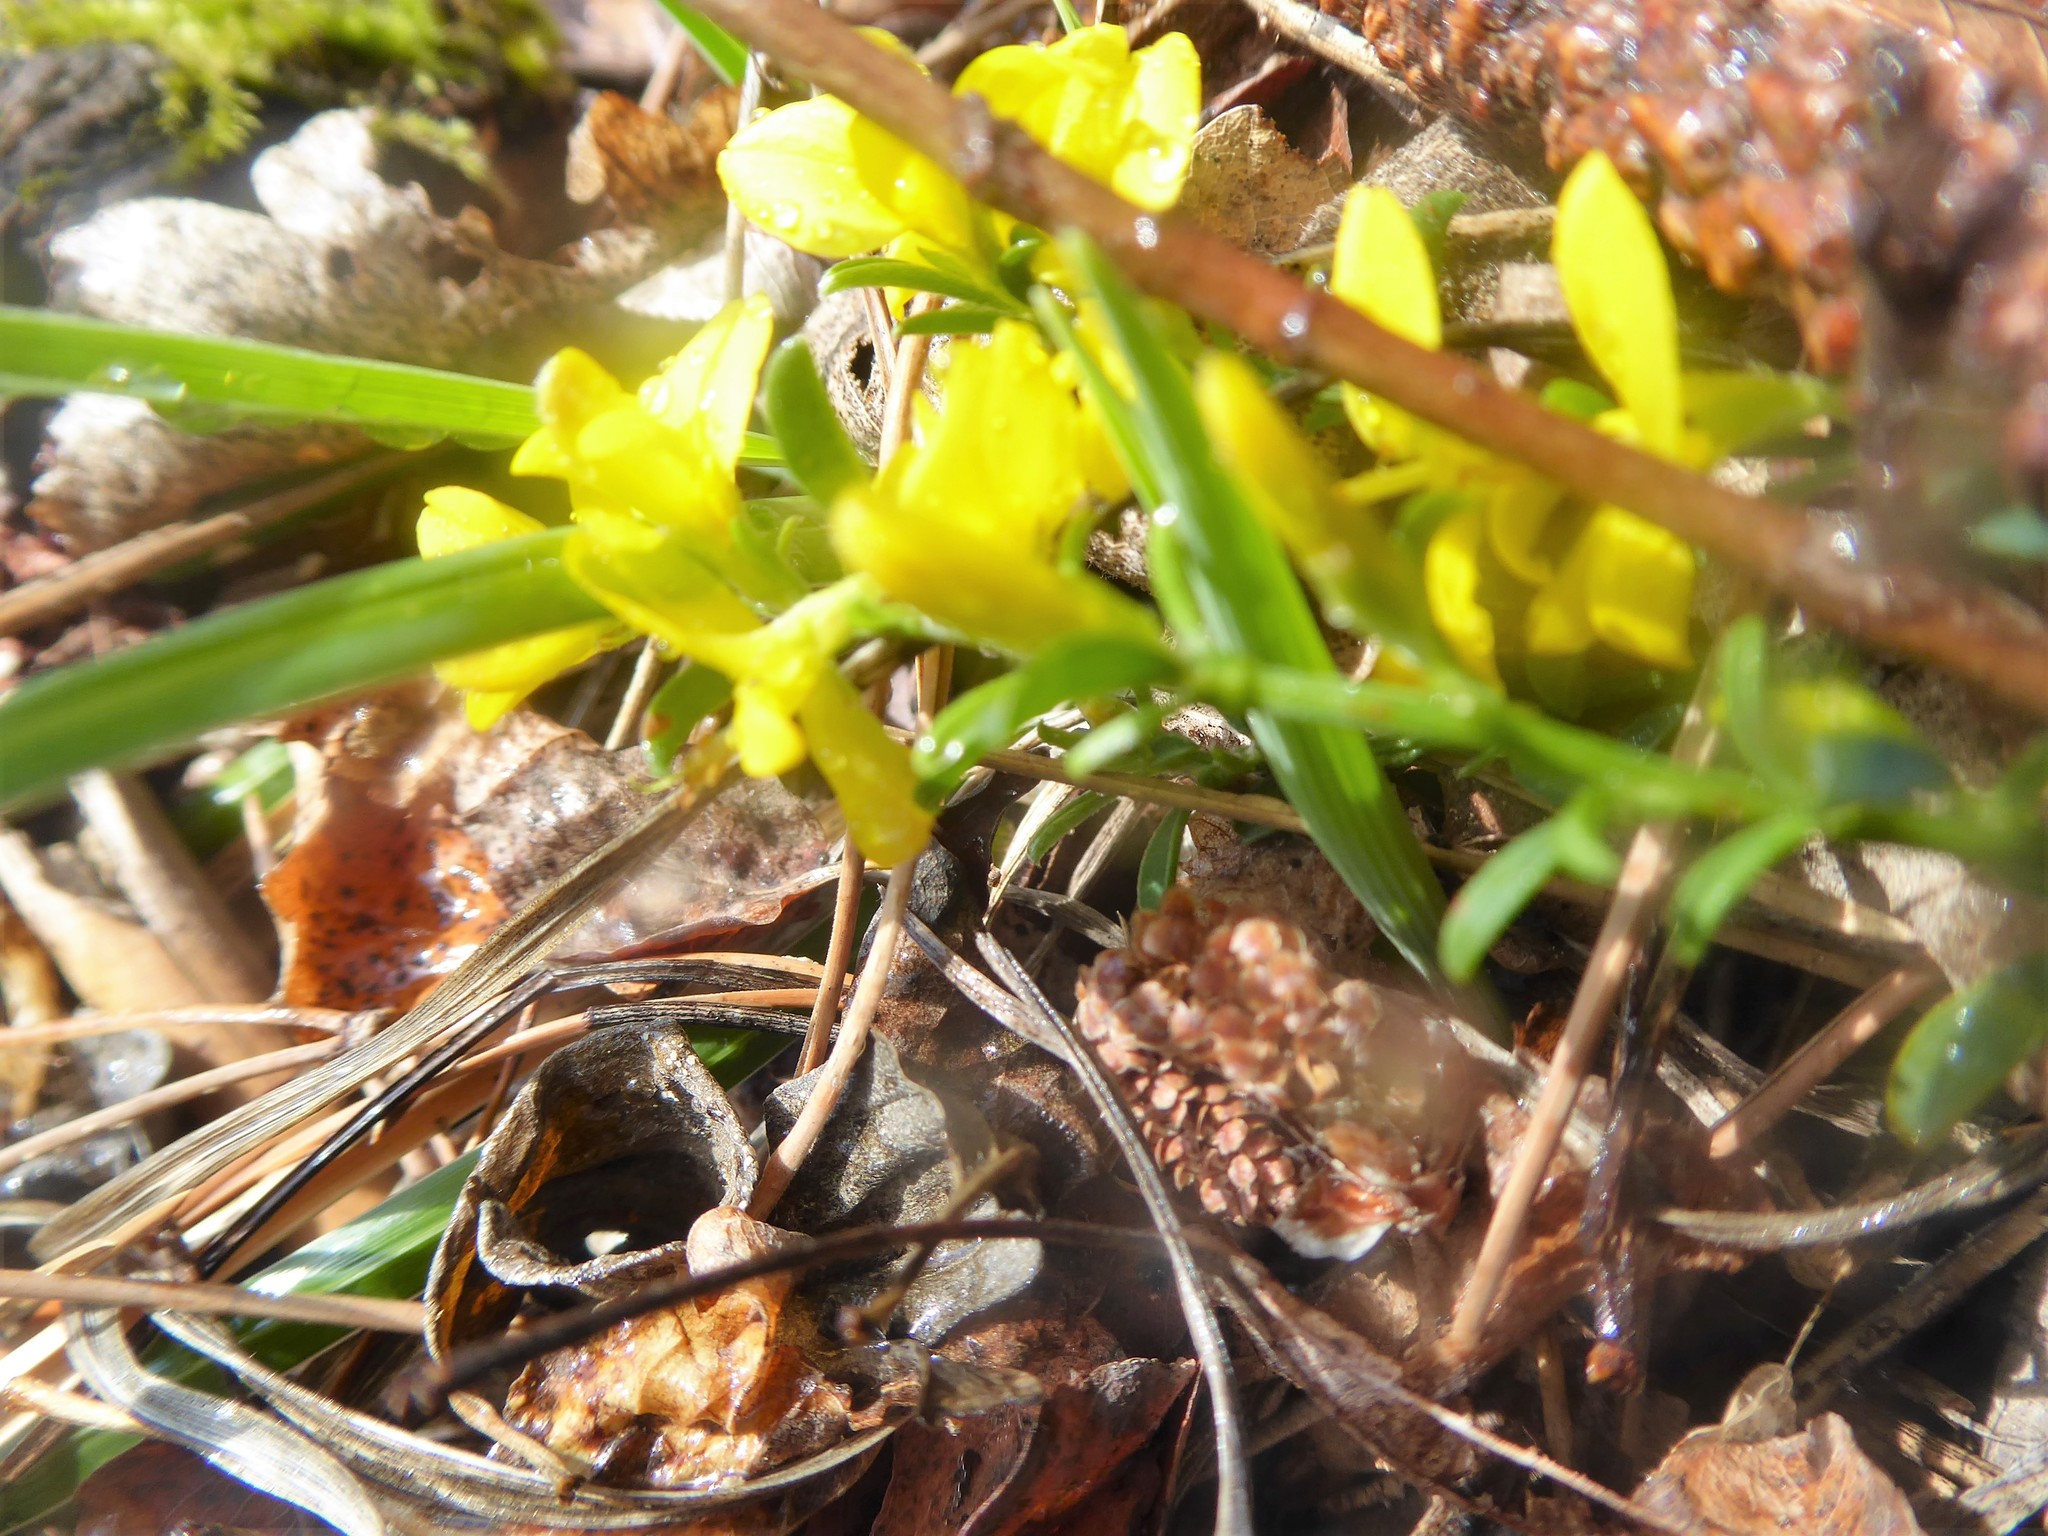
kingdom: Plantae
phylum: Tracheophyta
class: Magnoliopsida
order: Fabales
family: Fabaceae
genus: Genista
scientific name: Genista pilosa
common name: Hairy greenweed
